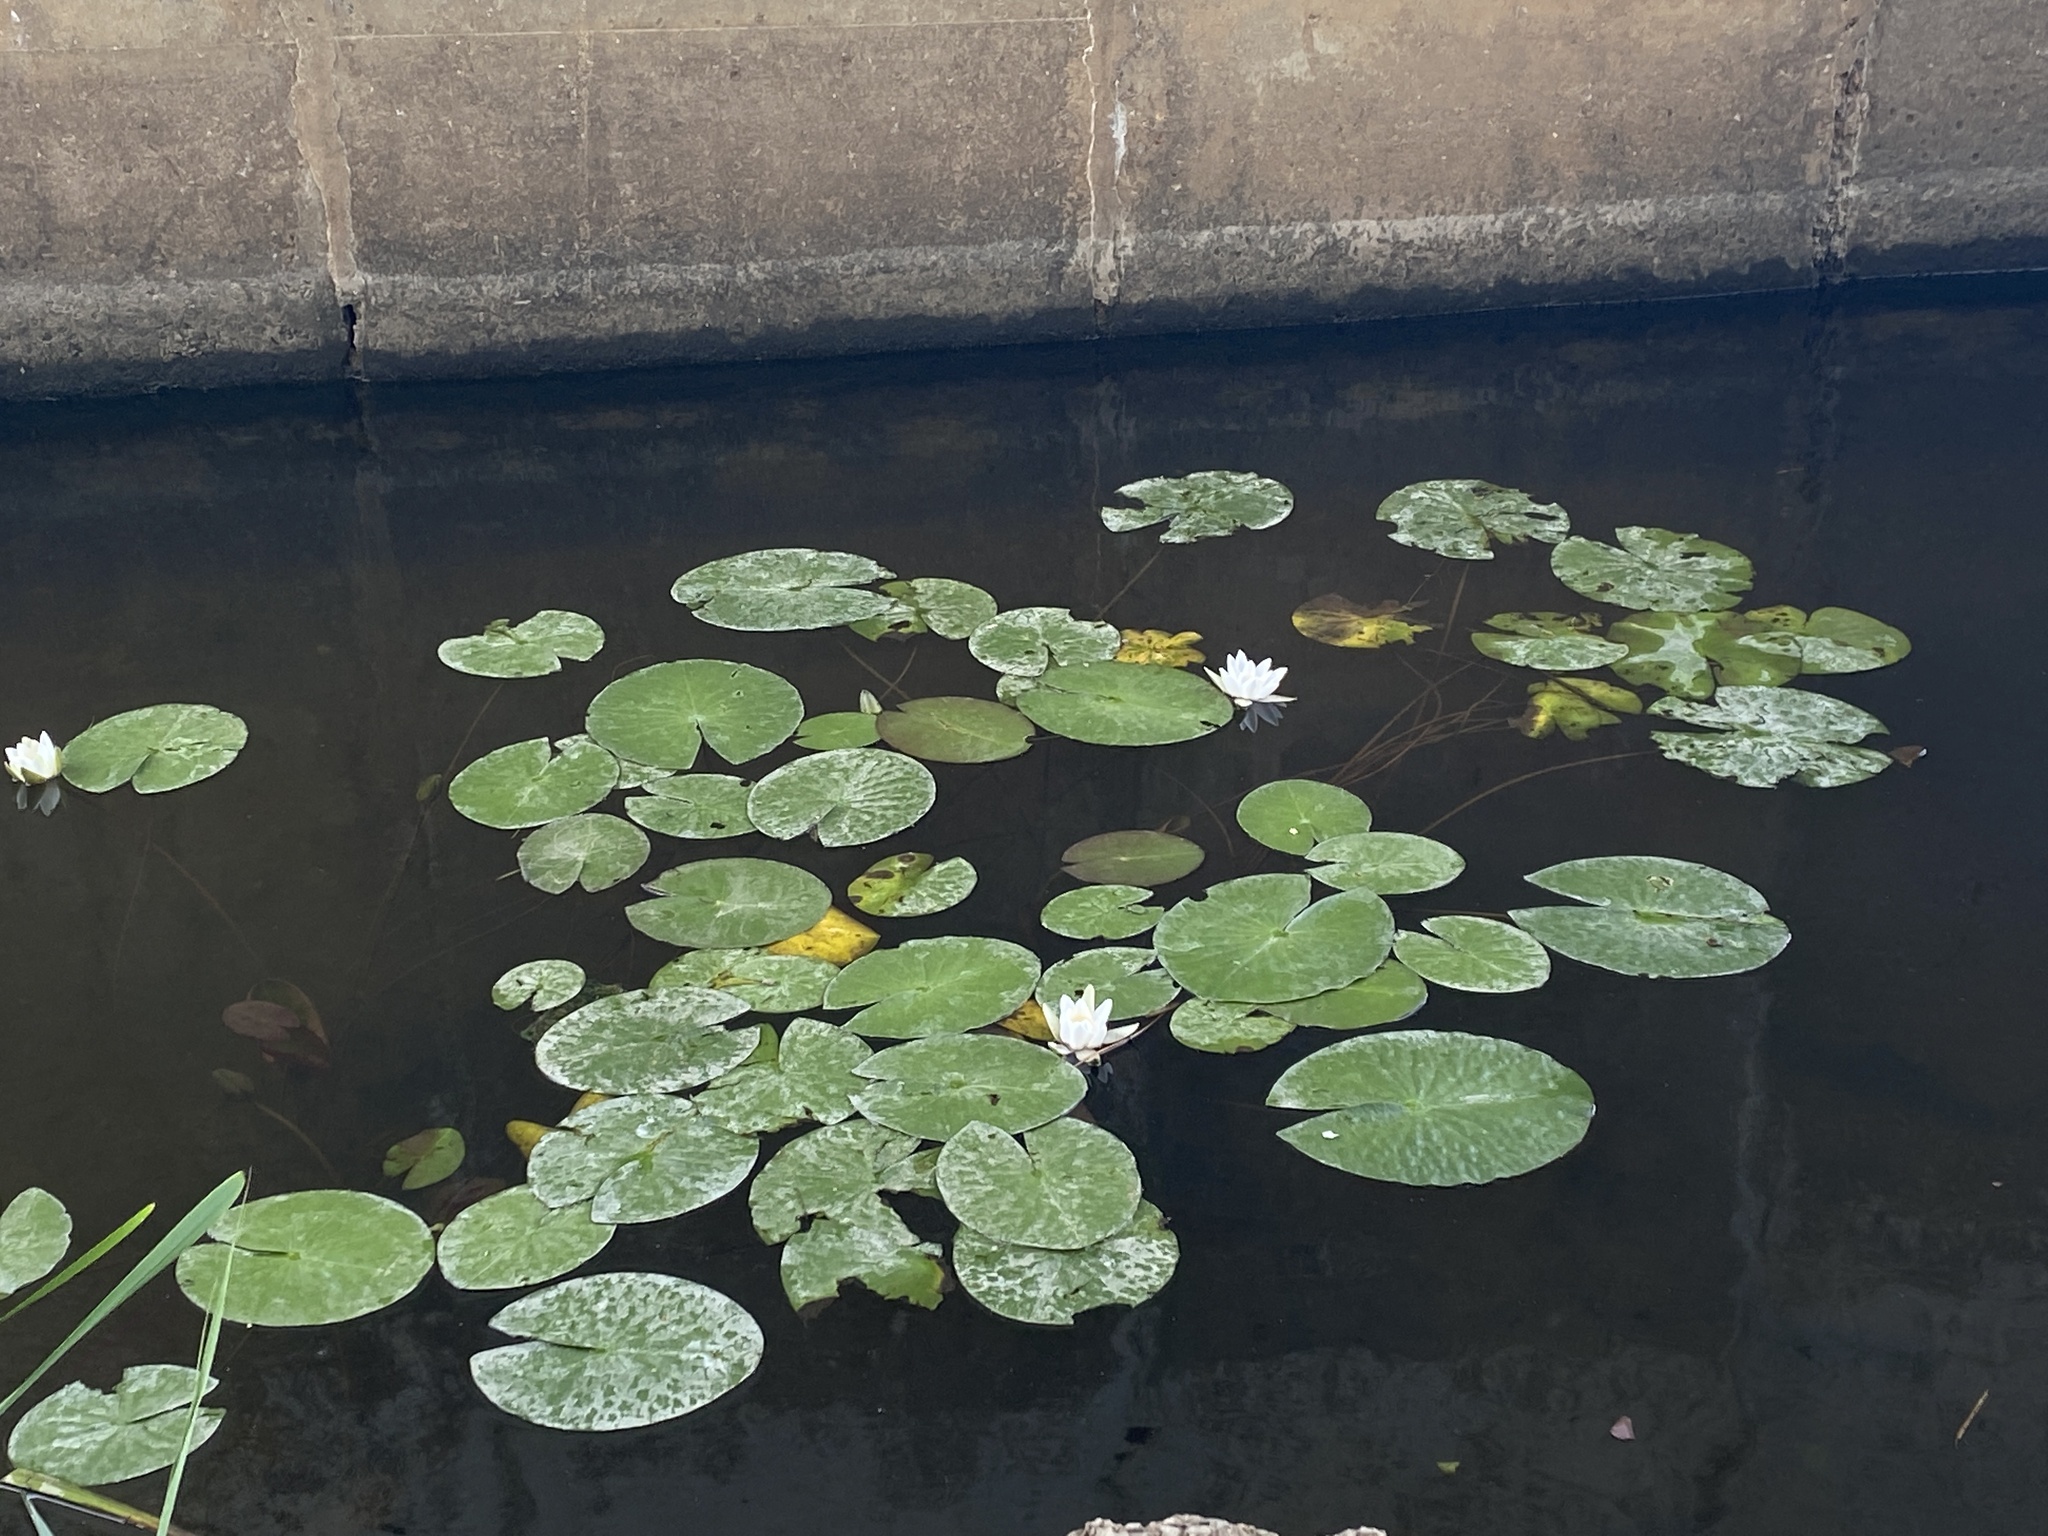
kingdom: Plantae
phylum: Tracheophyta
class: Magnoliopsida
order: Nymphaeales
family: Nymphaeaceae
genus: Nymphaea
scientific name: Nymphaea candida
